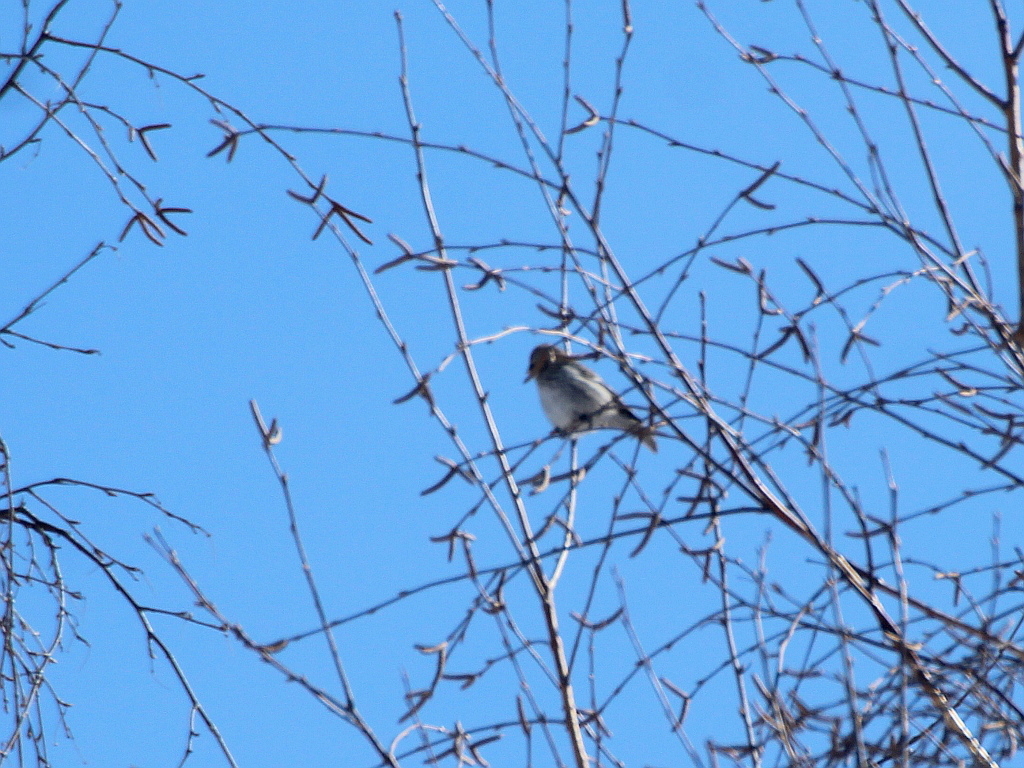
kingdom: Animalia
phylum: Chordata
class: Aves
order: Passeriformes
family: Fringillidae
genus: Acanthis
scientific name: Acanthis flammea
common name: Common redpoll
